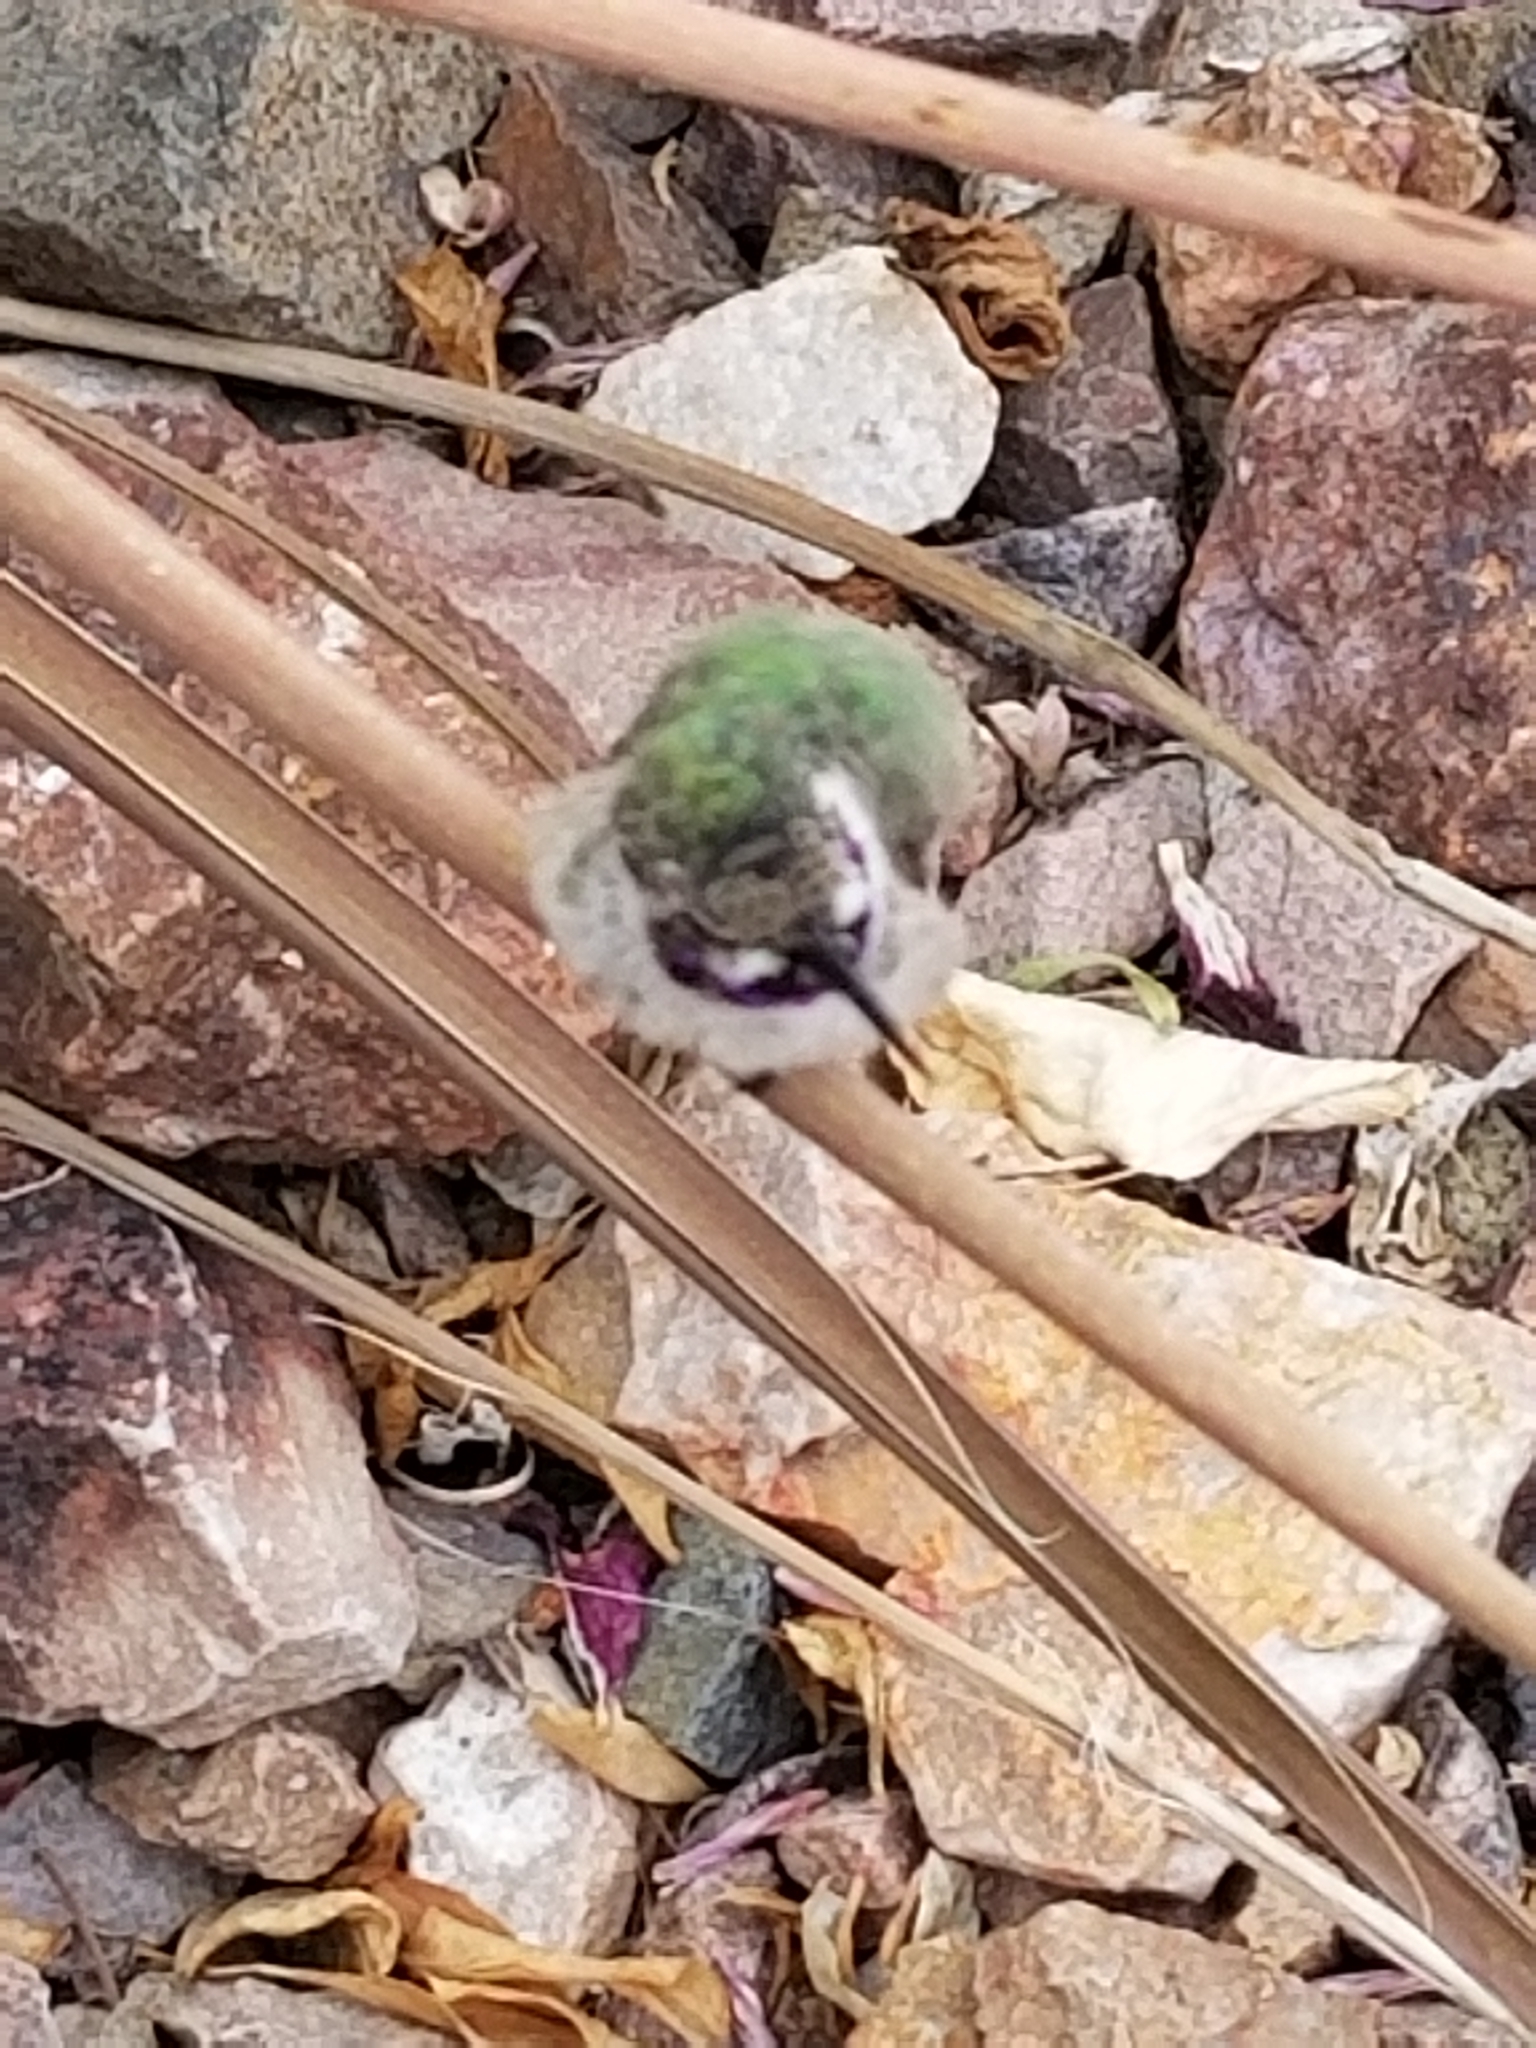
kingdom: Animalia
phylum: Chordata
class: Aves
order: Apodiformes
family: Trochilidae
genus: Calypte
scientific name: Calypte costae
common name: Costa's hummingbird
